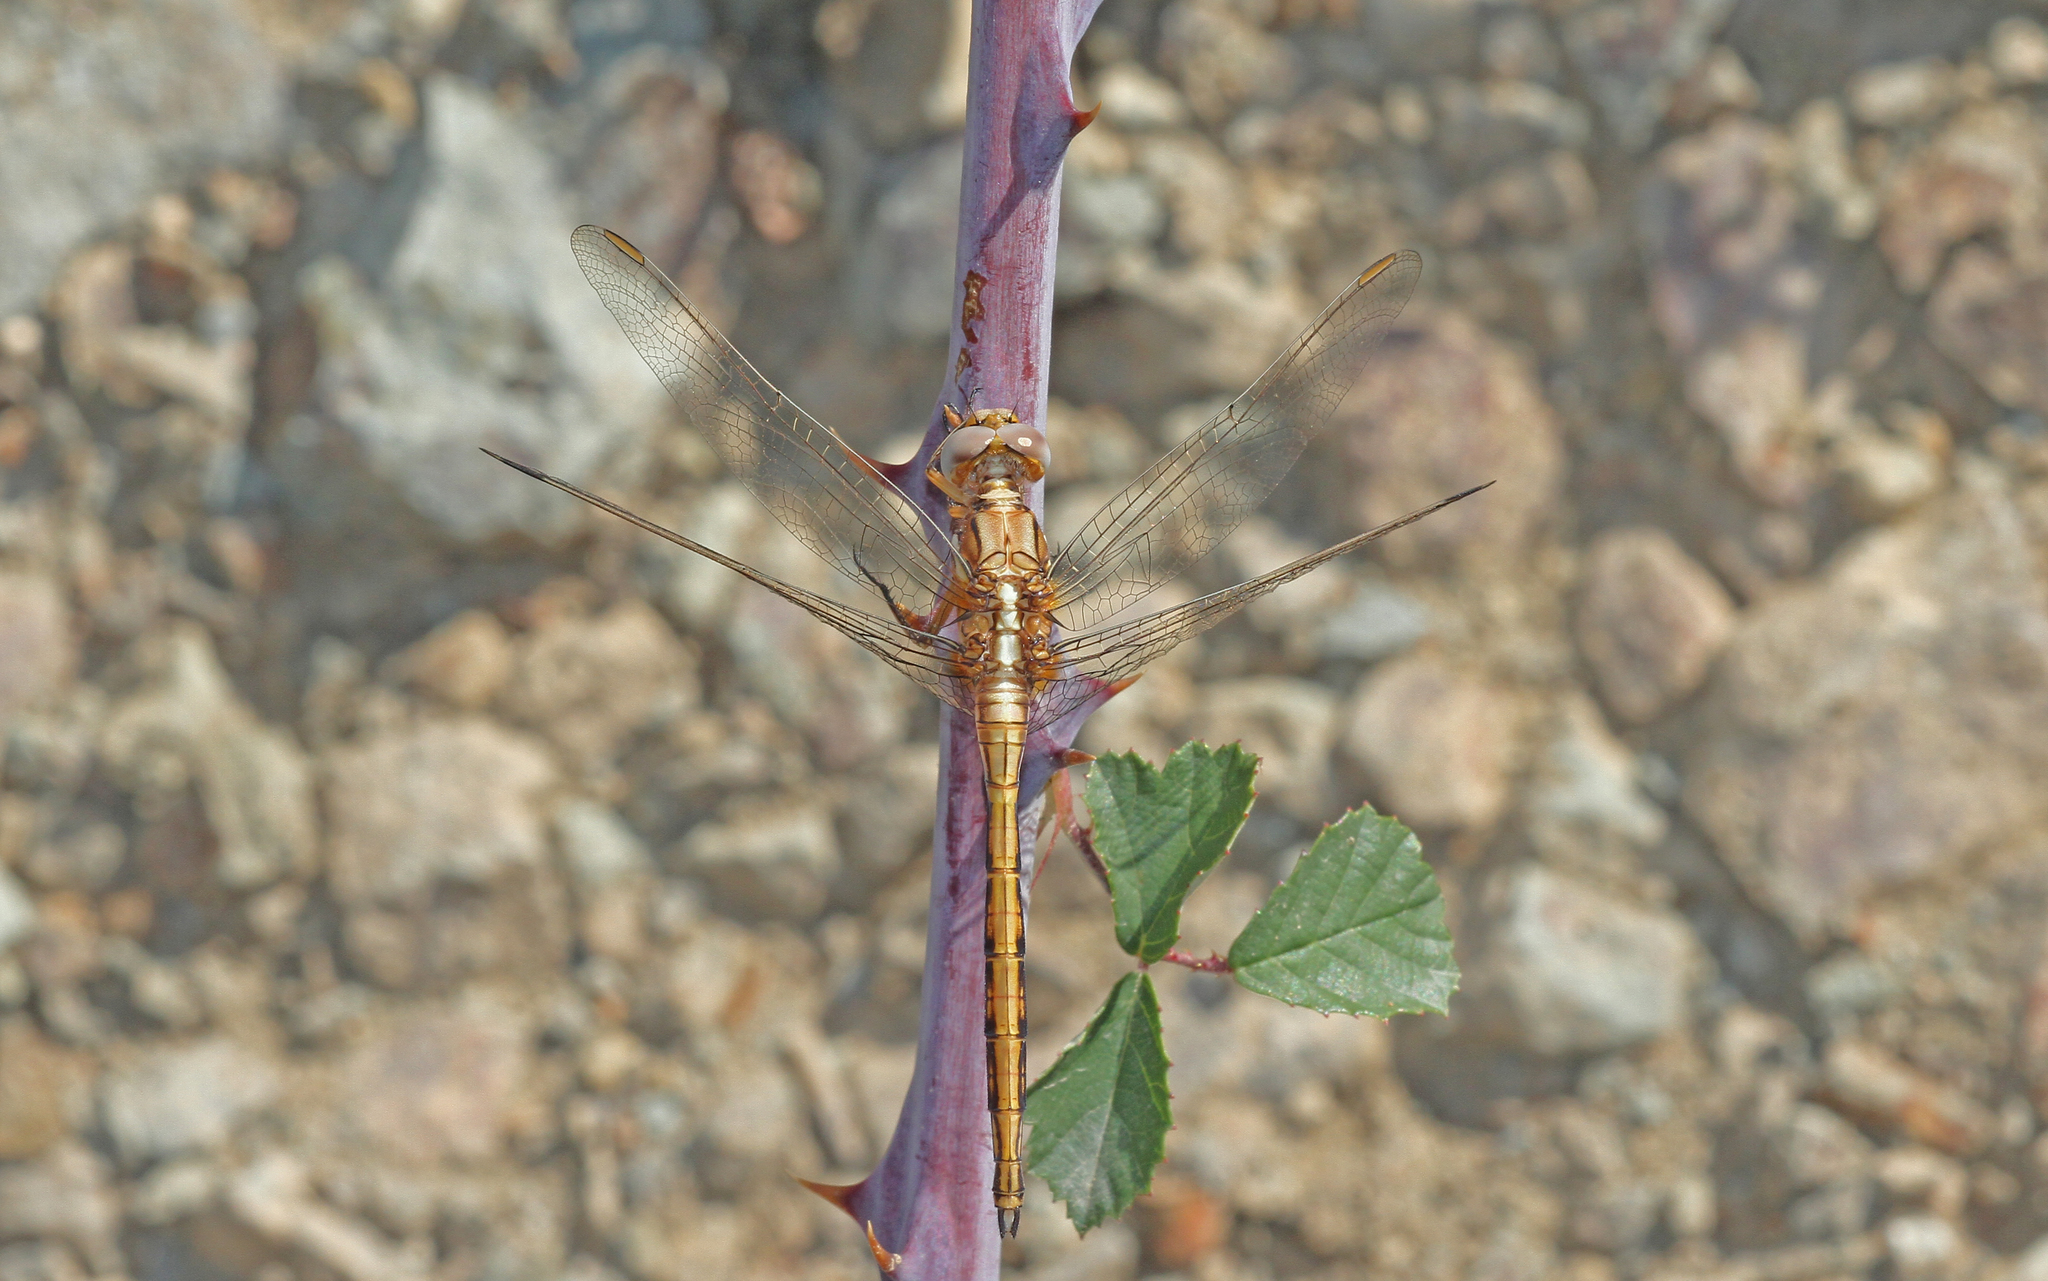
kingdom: Animalia
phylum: Arthropoda
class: Insecta
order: Odonata
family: Libellulidae
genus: Orthetrum
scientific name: Orthetrum chrysostigma
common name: Epaulet skimmer
